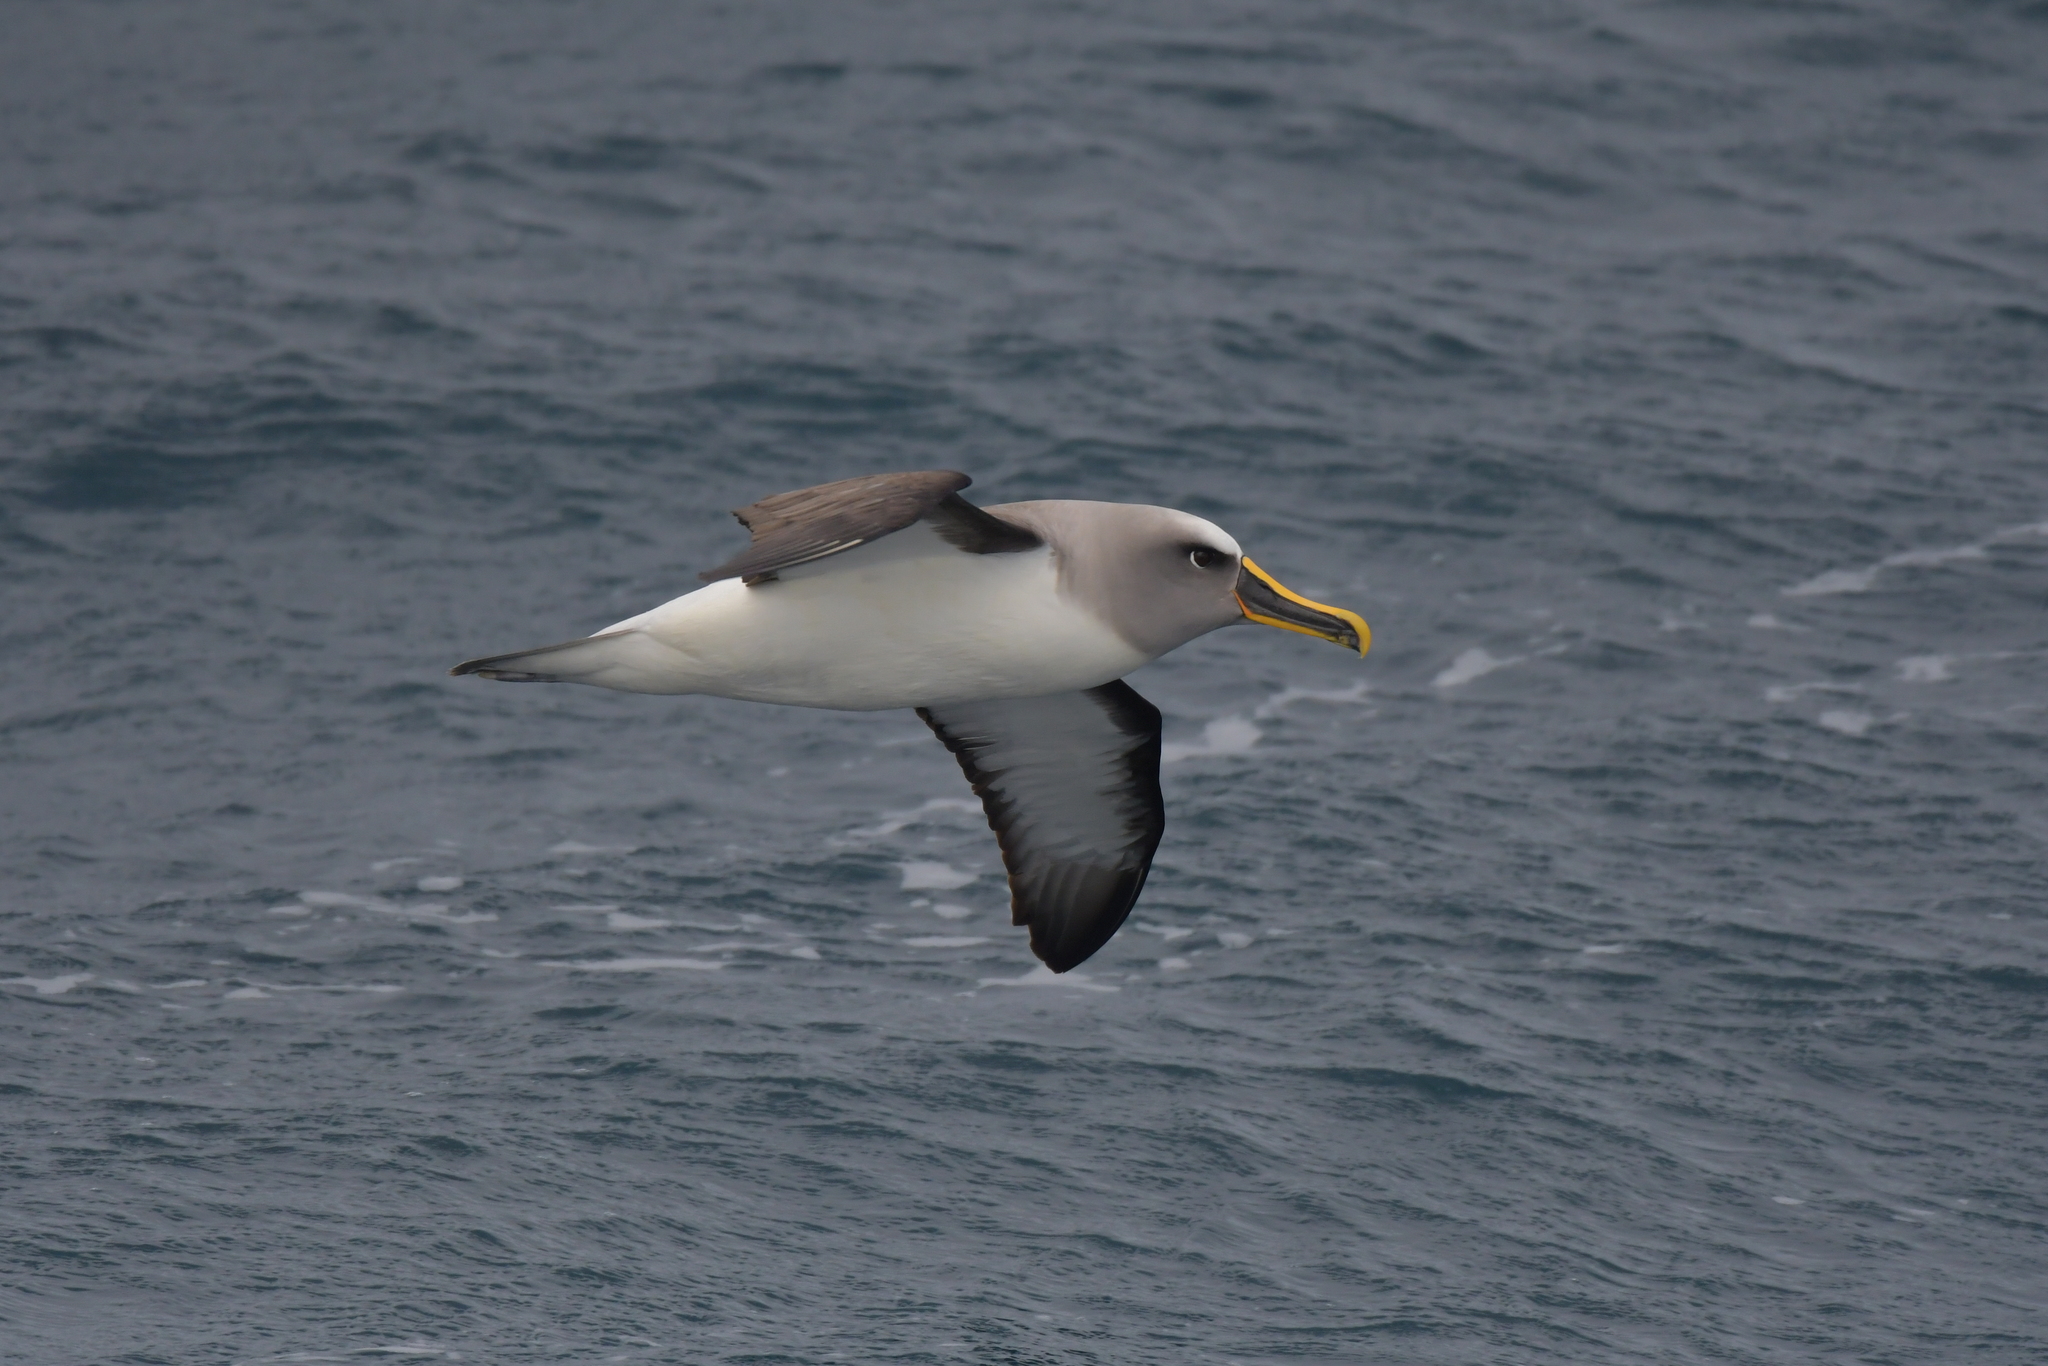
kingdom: Animalia
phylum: Chordata
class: Aves
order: Procellariiformes
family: Diomedeidae
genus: Thalassarche
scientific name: Thalassarche bulleri
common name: Buller's albatross
